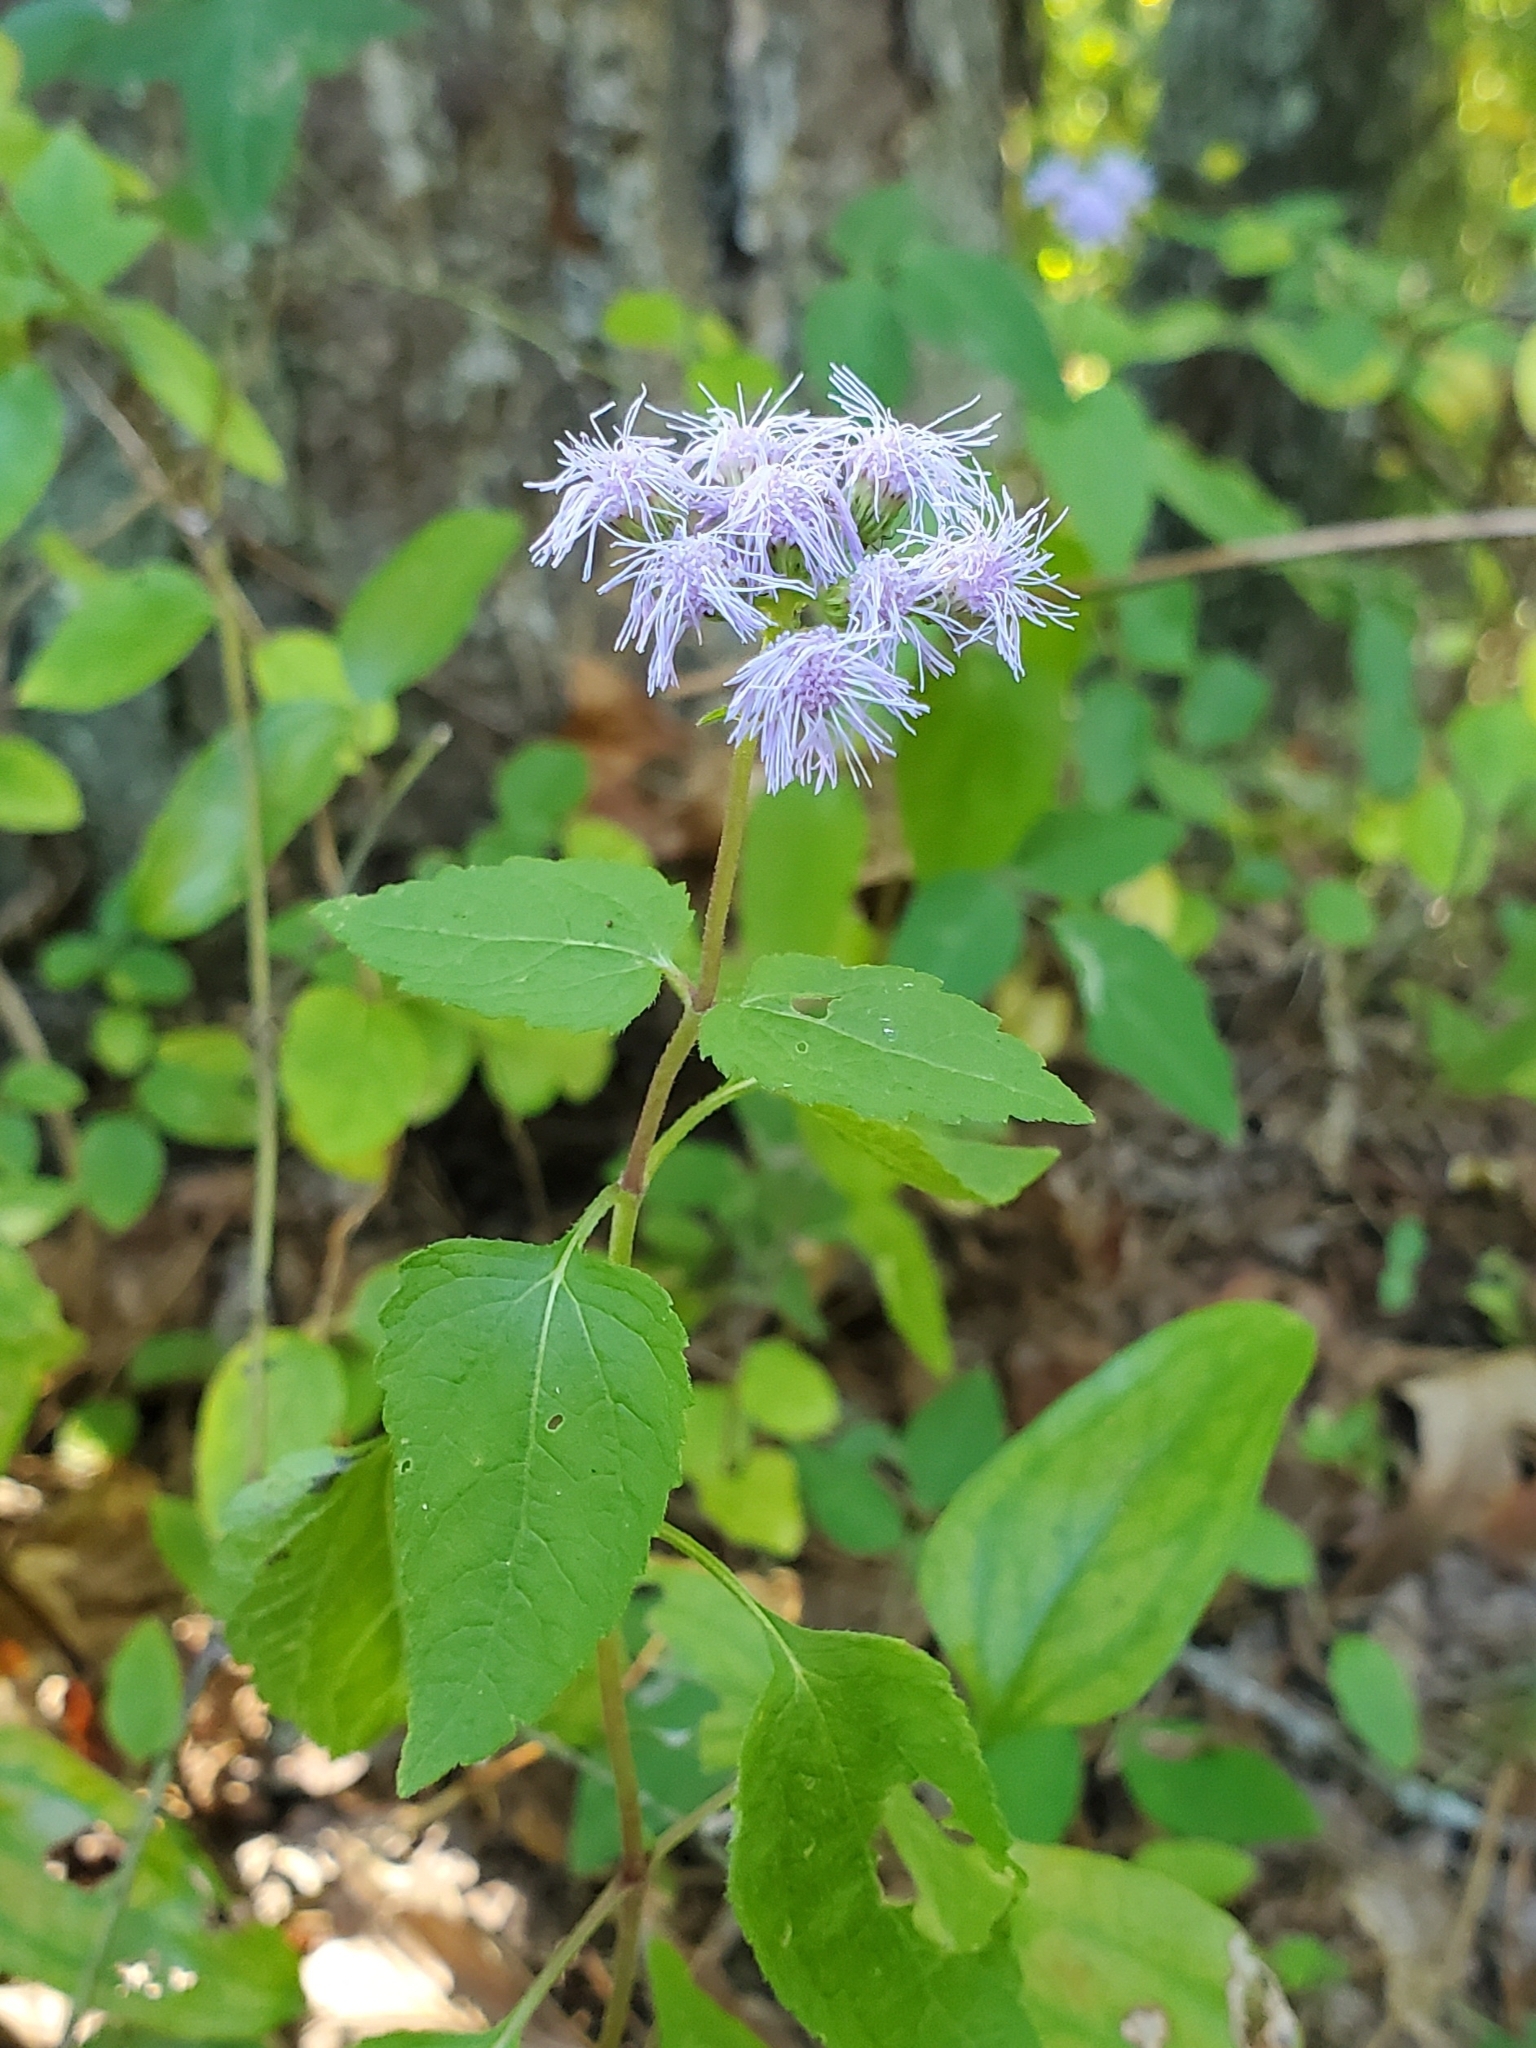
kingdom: Plantae
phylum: Tracheophyta
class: Magnoliopsida
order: Asterales
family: Asteraceae
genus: Conoclinium
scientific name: Conoclinium coelestinum
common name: Blue mistflower
